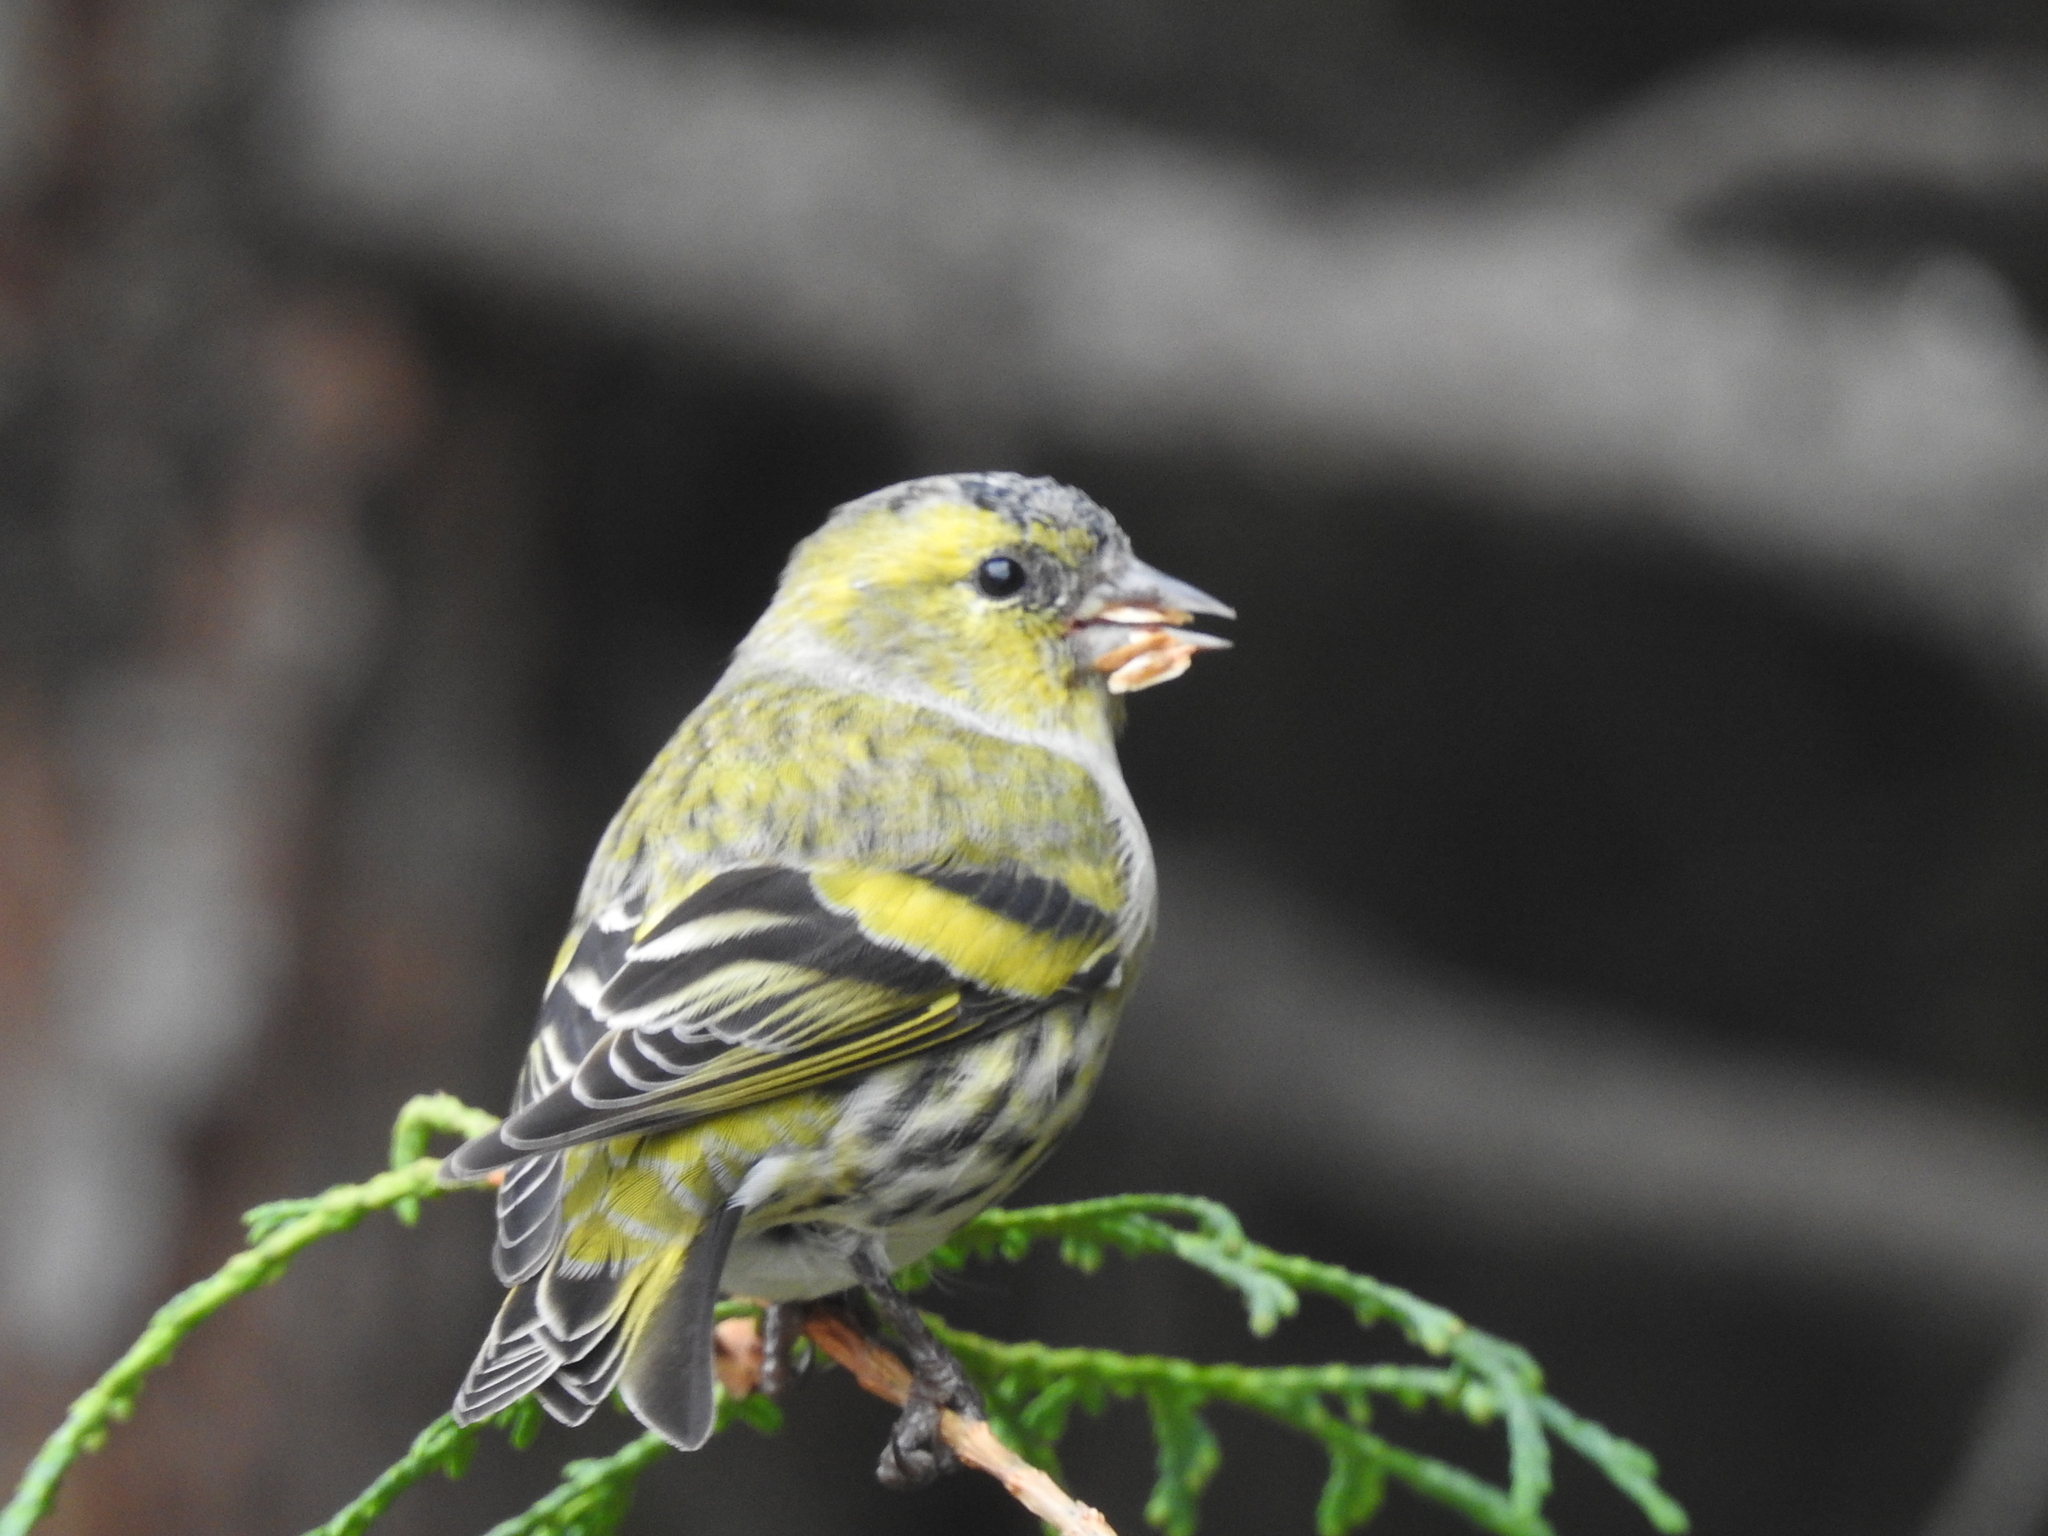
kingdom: Animalia
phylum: Chordata
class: Aves
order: Passeriformes
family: Fringillidae
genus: Spinus
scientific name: Spinus spinus
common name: Eurasian siskin
